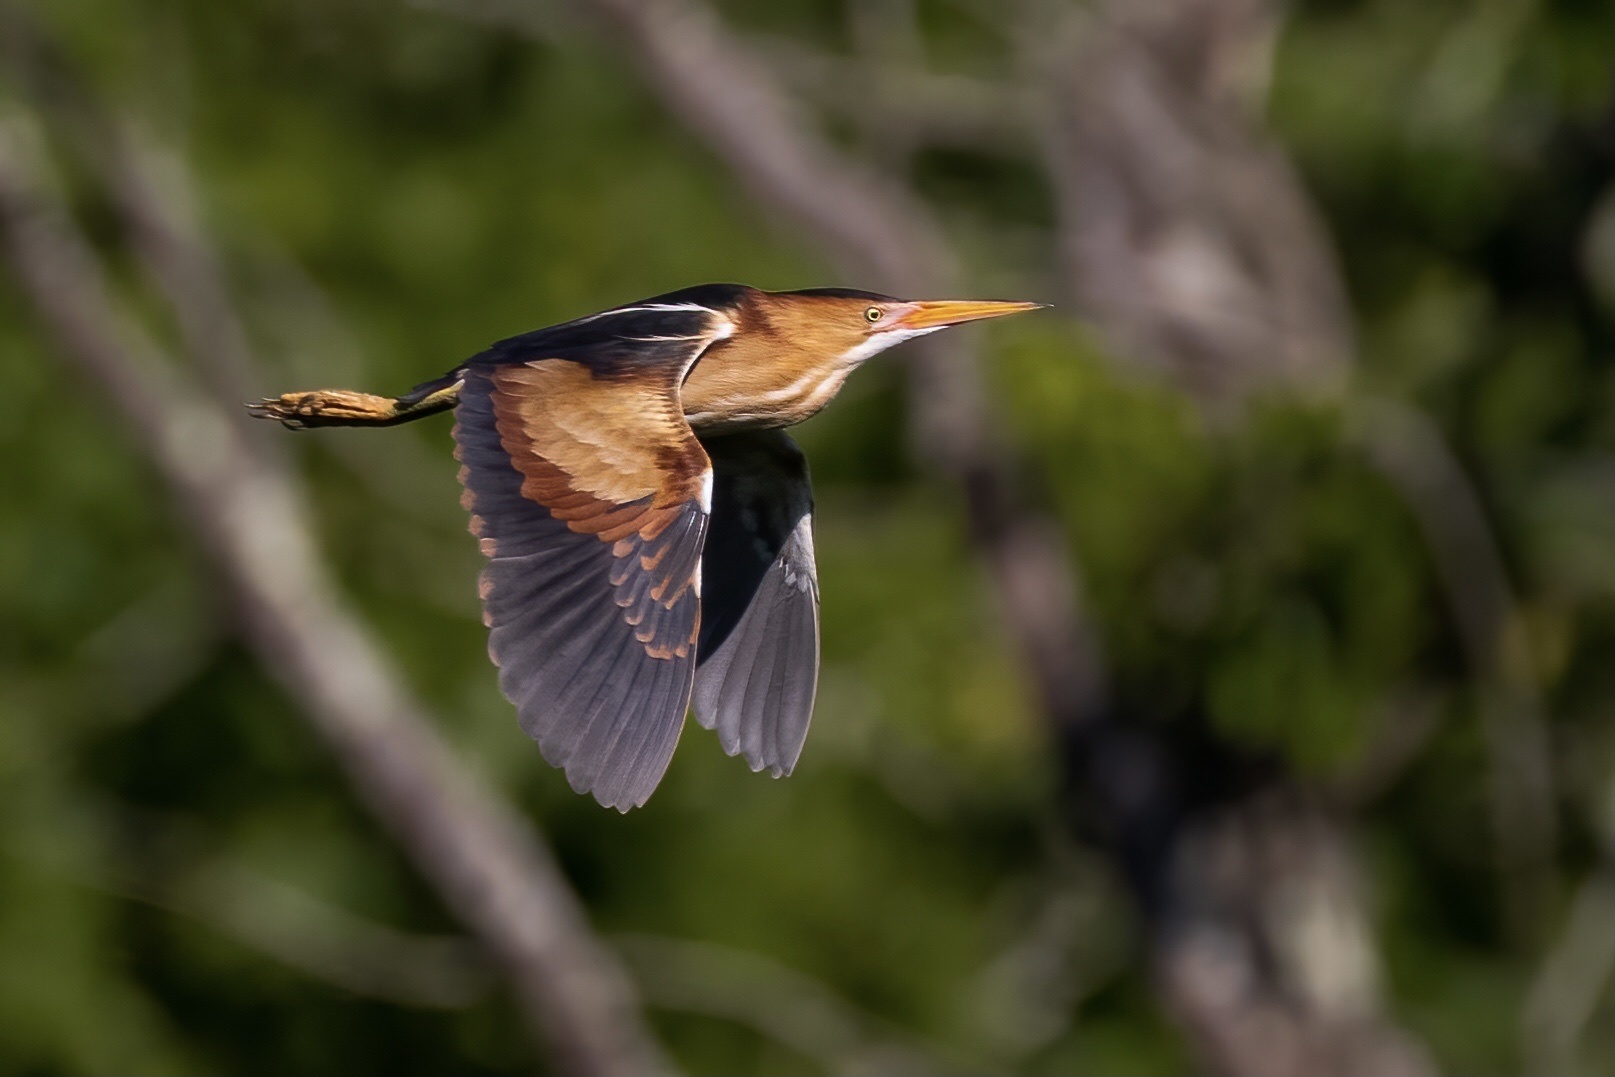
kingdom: Animalia
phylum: Chordata
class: Aves
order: Pelecaniformes
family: Ardeidae
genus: Ixobrychus
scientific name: Ixobrychus exilis
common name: Least bittern
